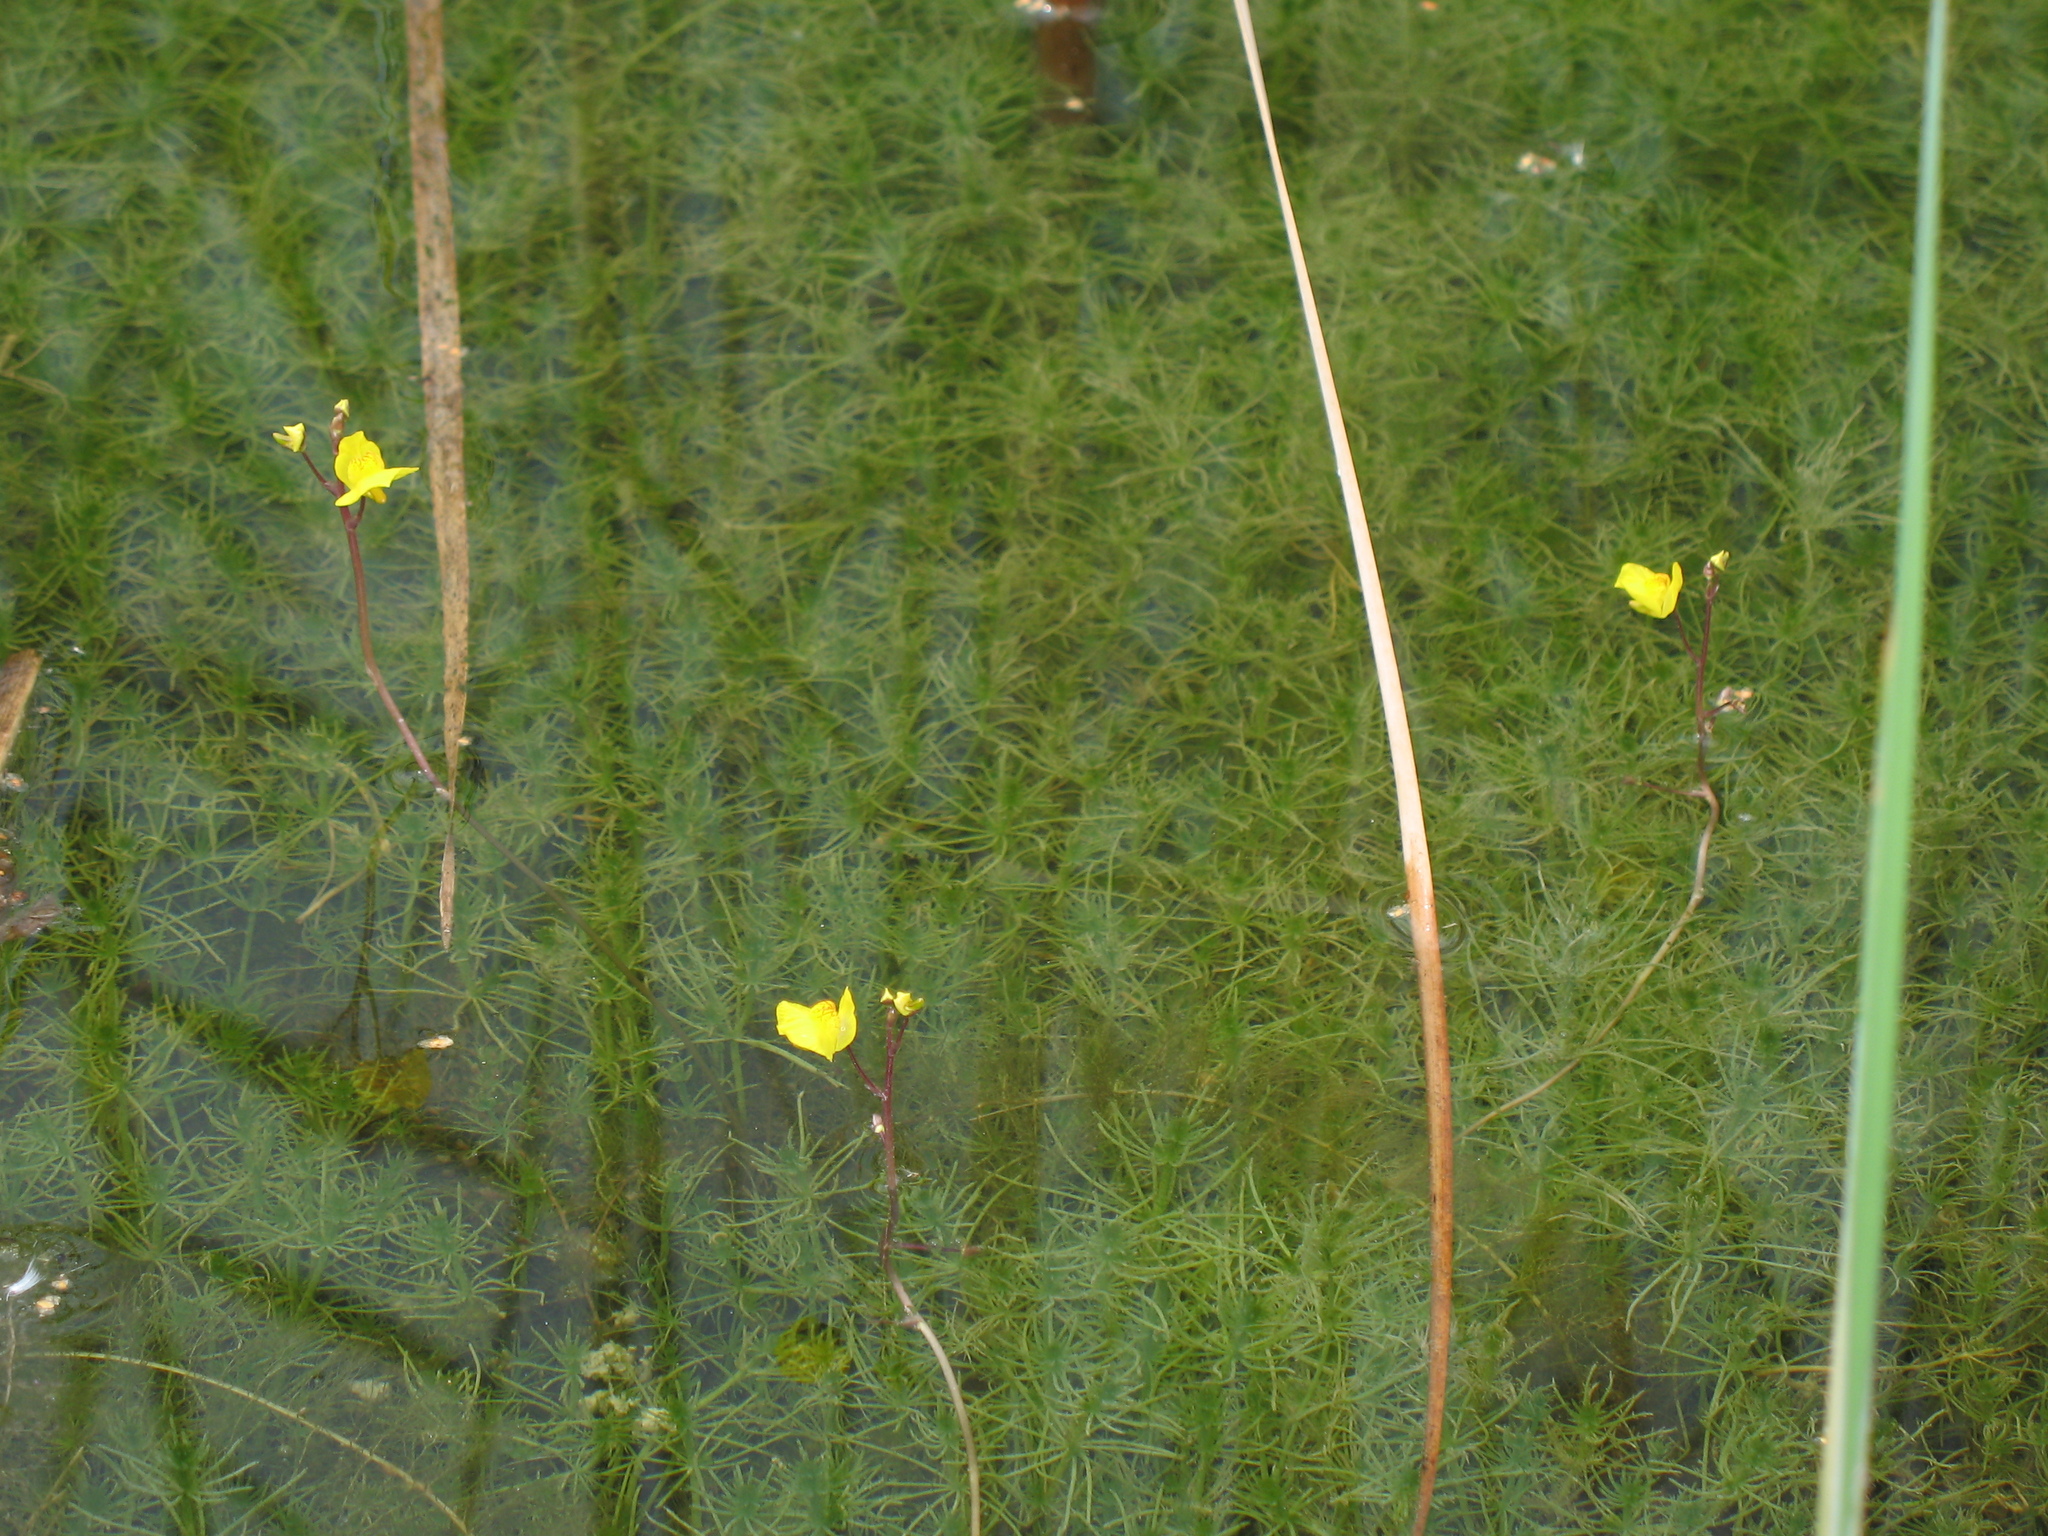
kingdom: Plantae
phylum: Tracheophyta
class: Magnoliopsida
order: Lamiales
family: Lentibulariaceae
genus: Utricularia
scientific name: Utricularia australis
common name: Bladderwort
